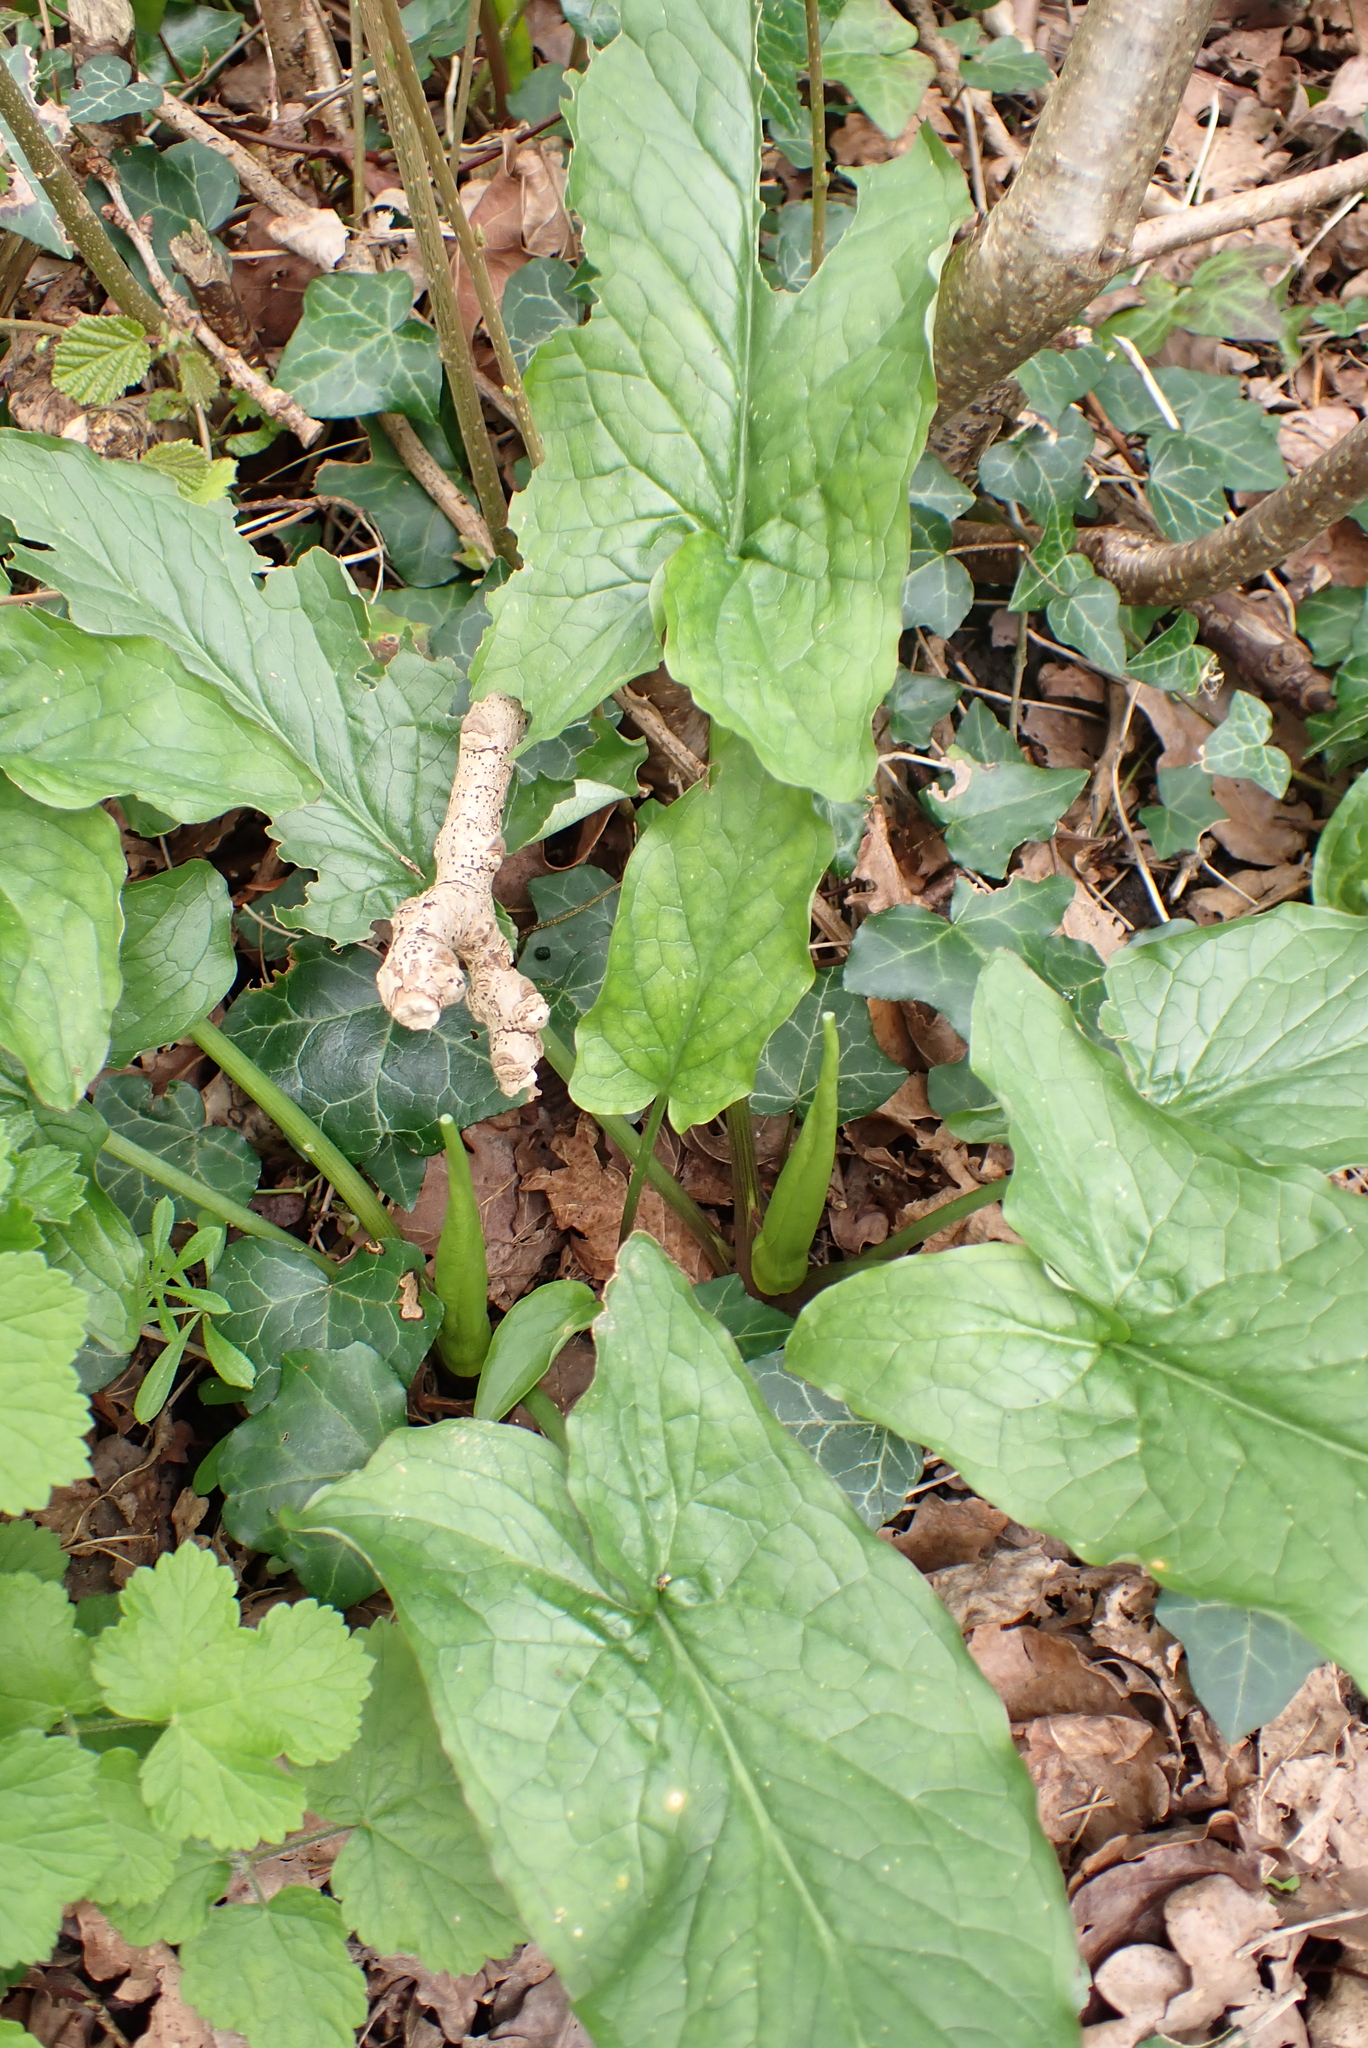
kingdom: Plantae
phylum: Tracheophyta
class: Liliopsida
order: Alismatales
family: Araceae
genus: Arum
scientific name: Arum maculatum
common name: Lords-and-ladies
